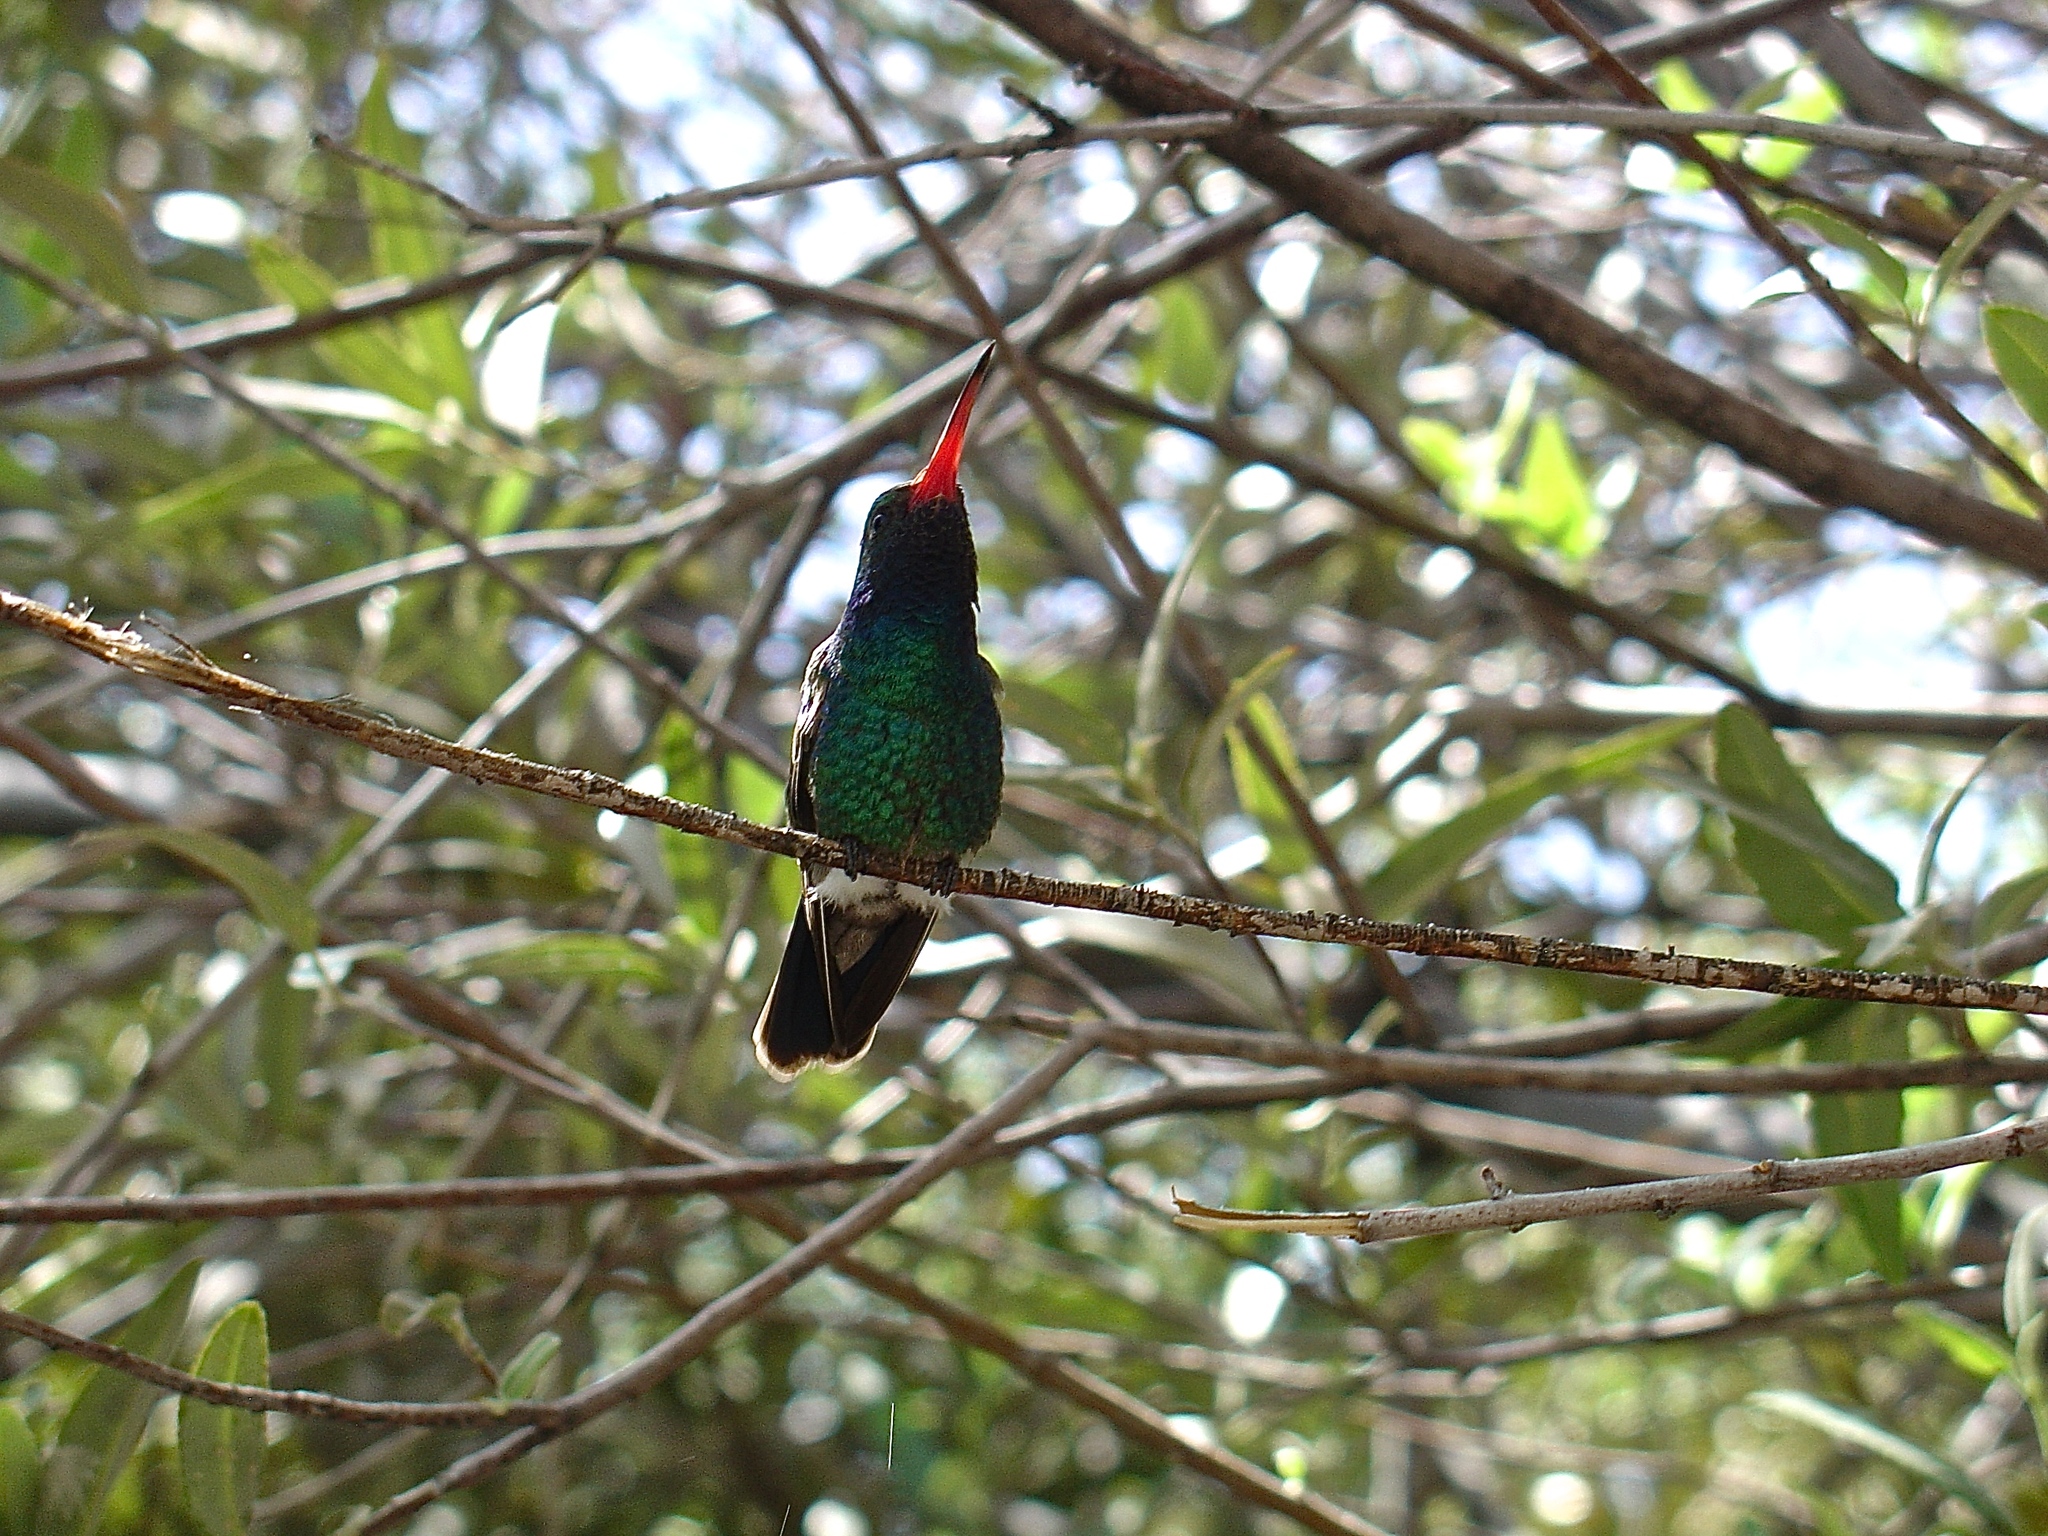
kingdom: Animalia
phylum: Chordata
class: Aves
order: Apodiformes
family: Trochilidae
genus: Cynanthus
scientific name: Cynanthus latirostris
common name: Broad-billed hummingbird
